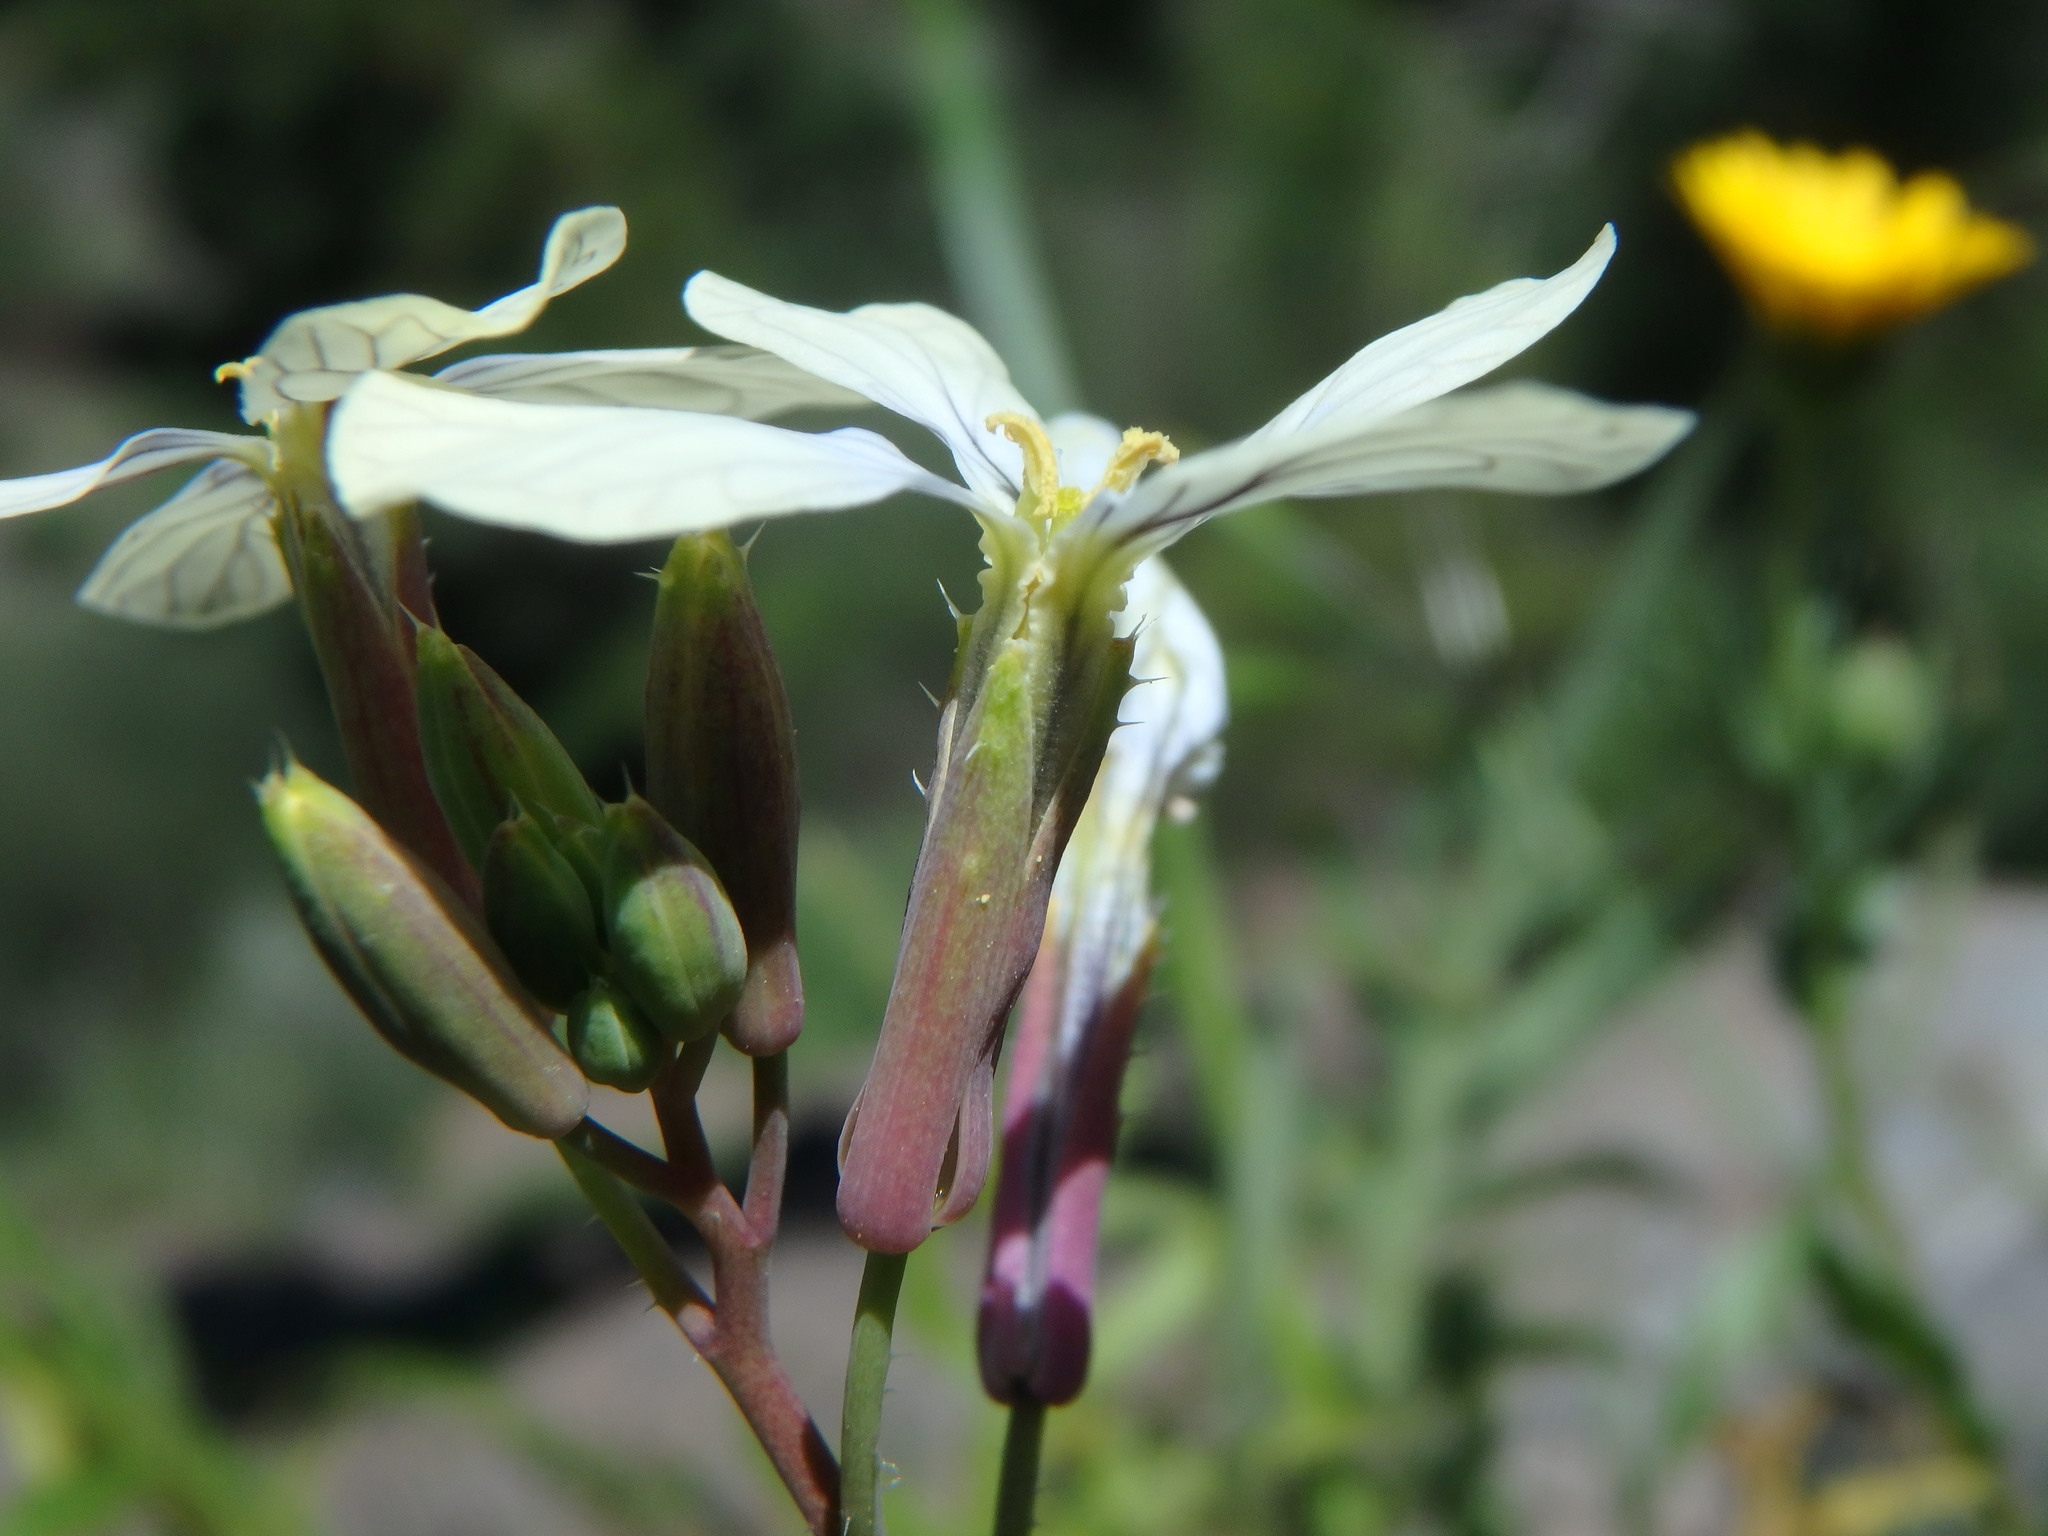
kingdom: Plantae
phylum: Tracheophyta
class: Magnoliopsida
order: Brassicales
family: Brassicaceae
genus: Raphanus
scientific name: Raphanus raphanistrum
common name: Wild radish
